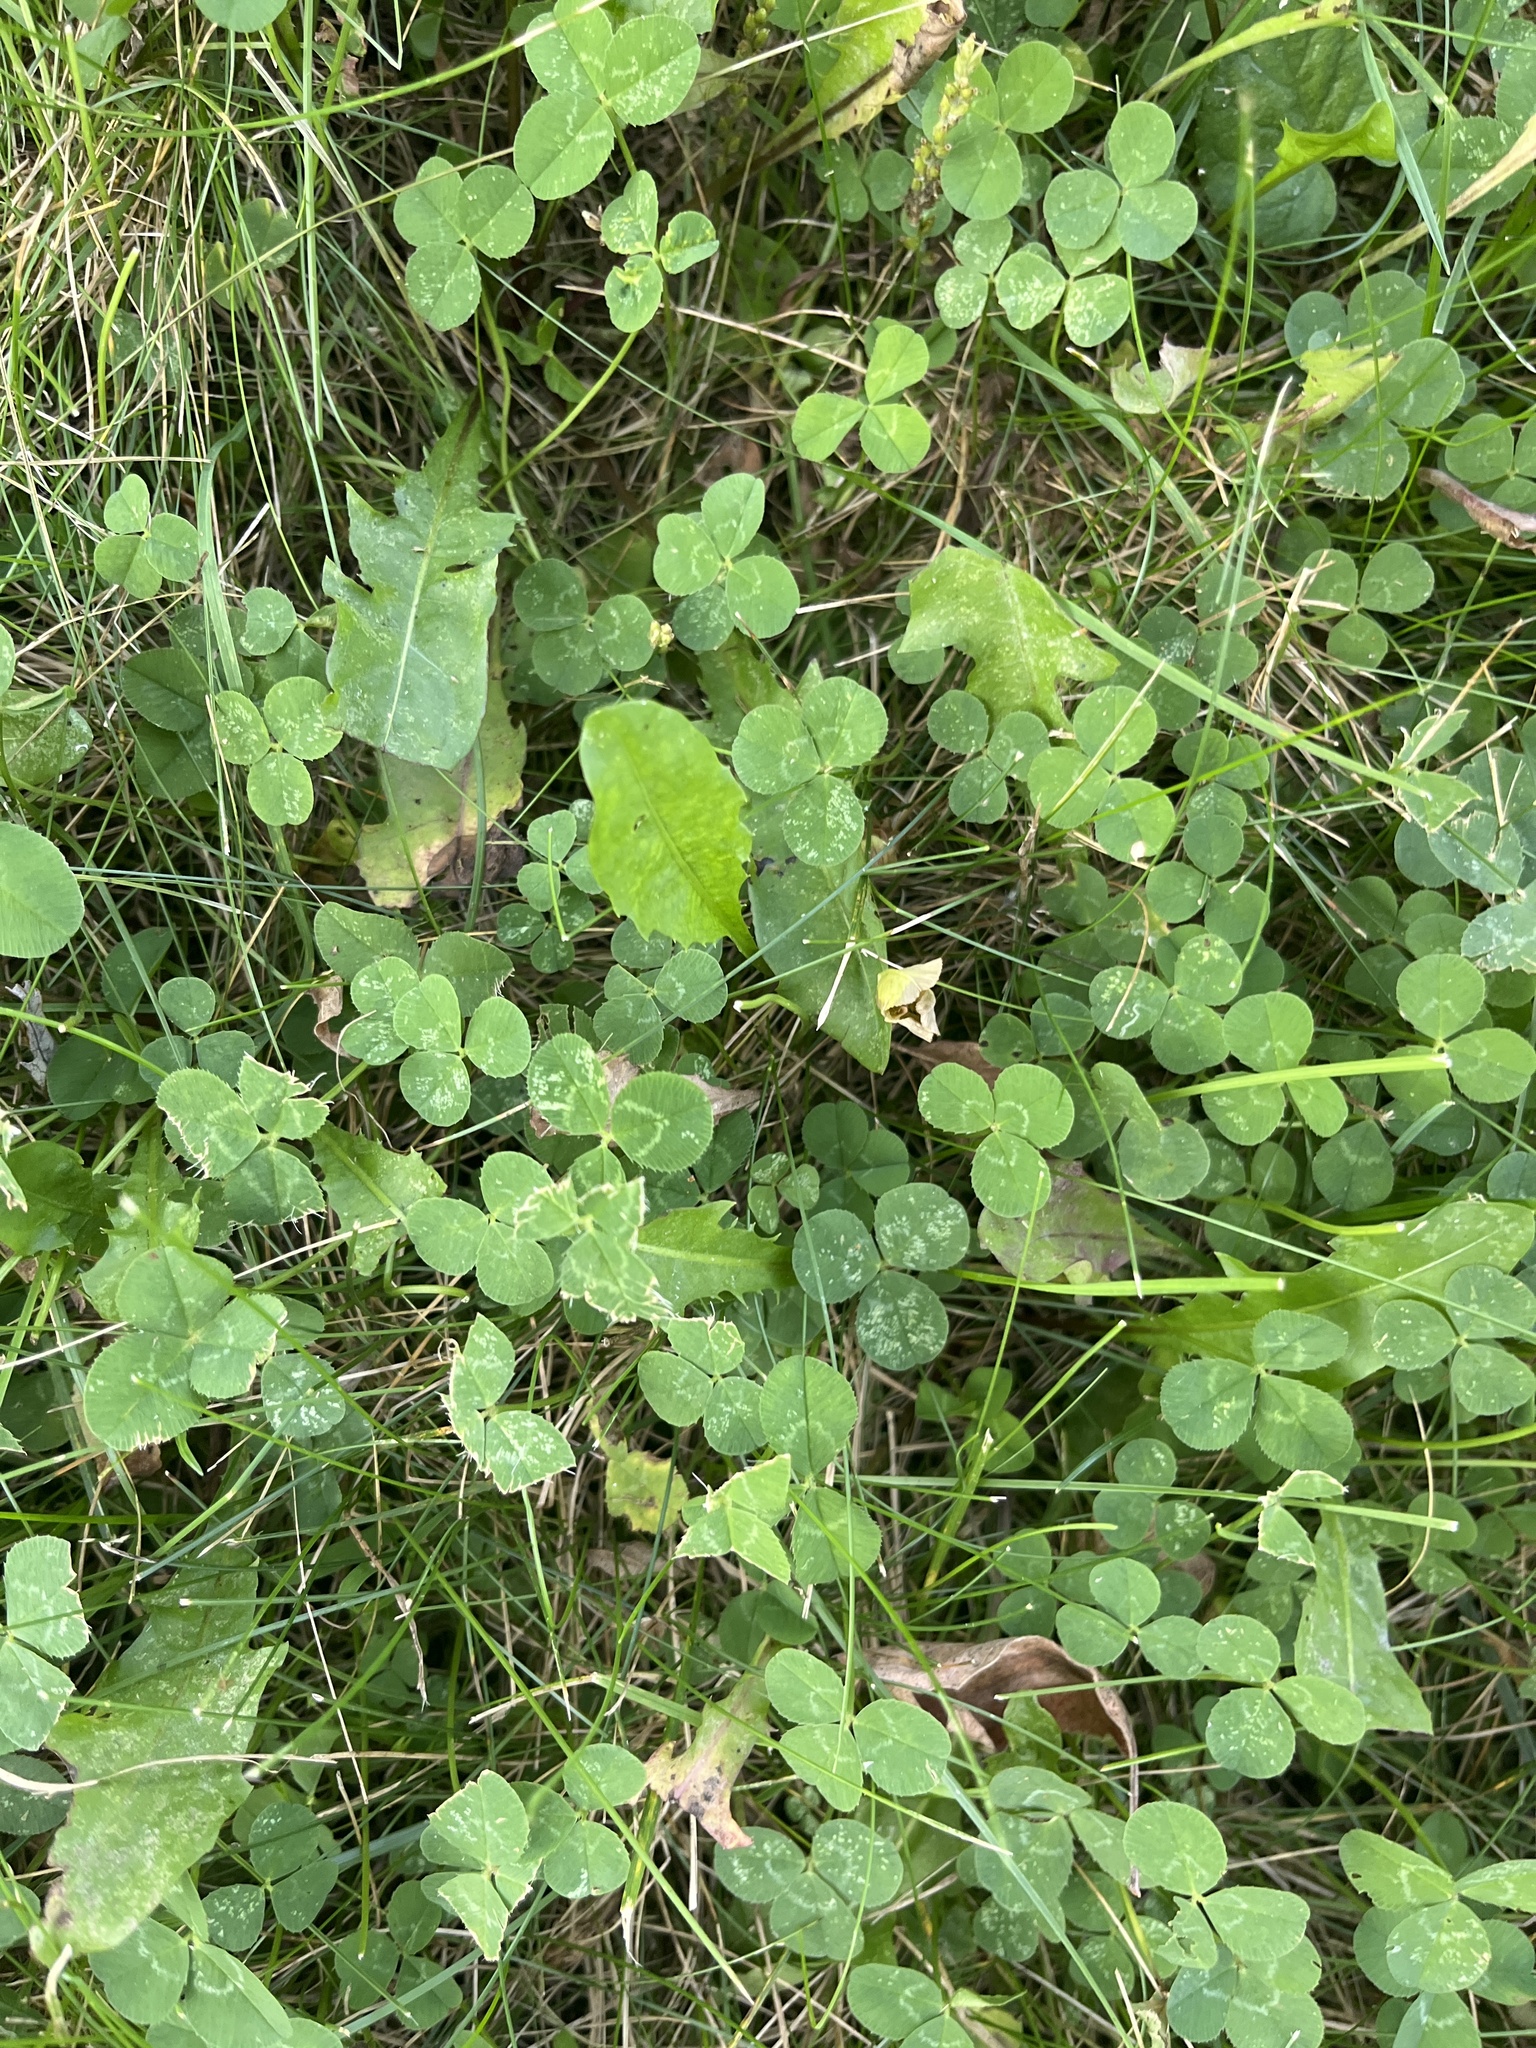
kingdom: Plantae
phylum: Tracheophyta
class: Magnoliopsida
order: Fabales
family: Fabaceae
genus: Trifolium
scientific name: Trifolium repens
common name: White clover
